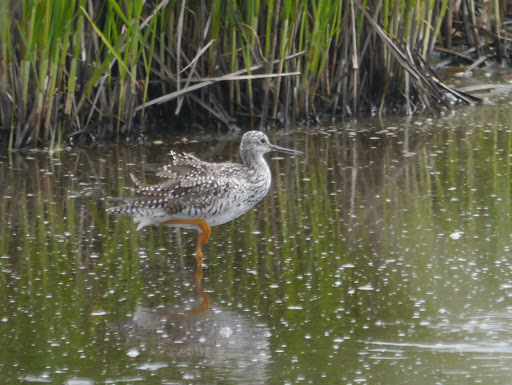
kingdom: Animalia
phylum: Chordata
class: Aves
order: Charadriiformes
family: Scolopacidae
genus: Tringa
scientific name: Tringa melanoleuca
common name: Greater yellowlegs
